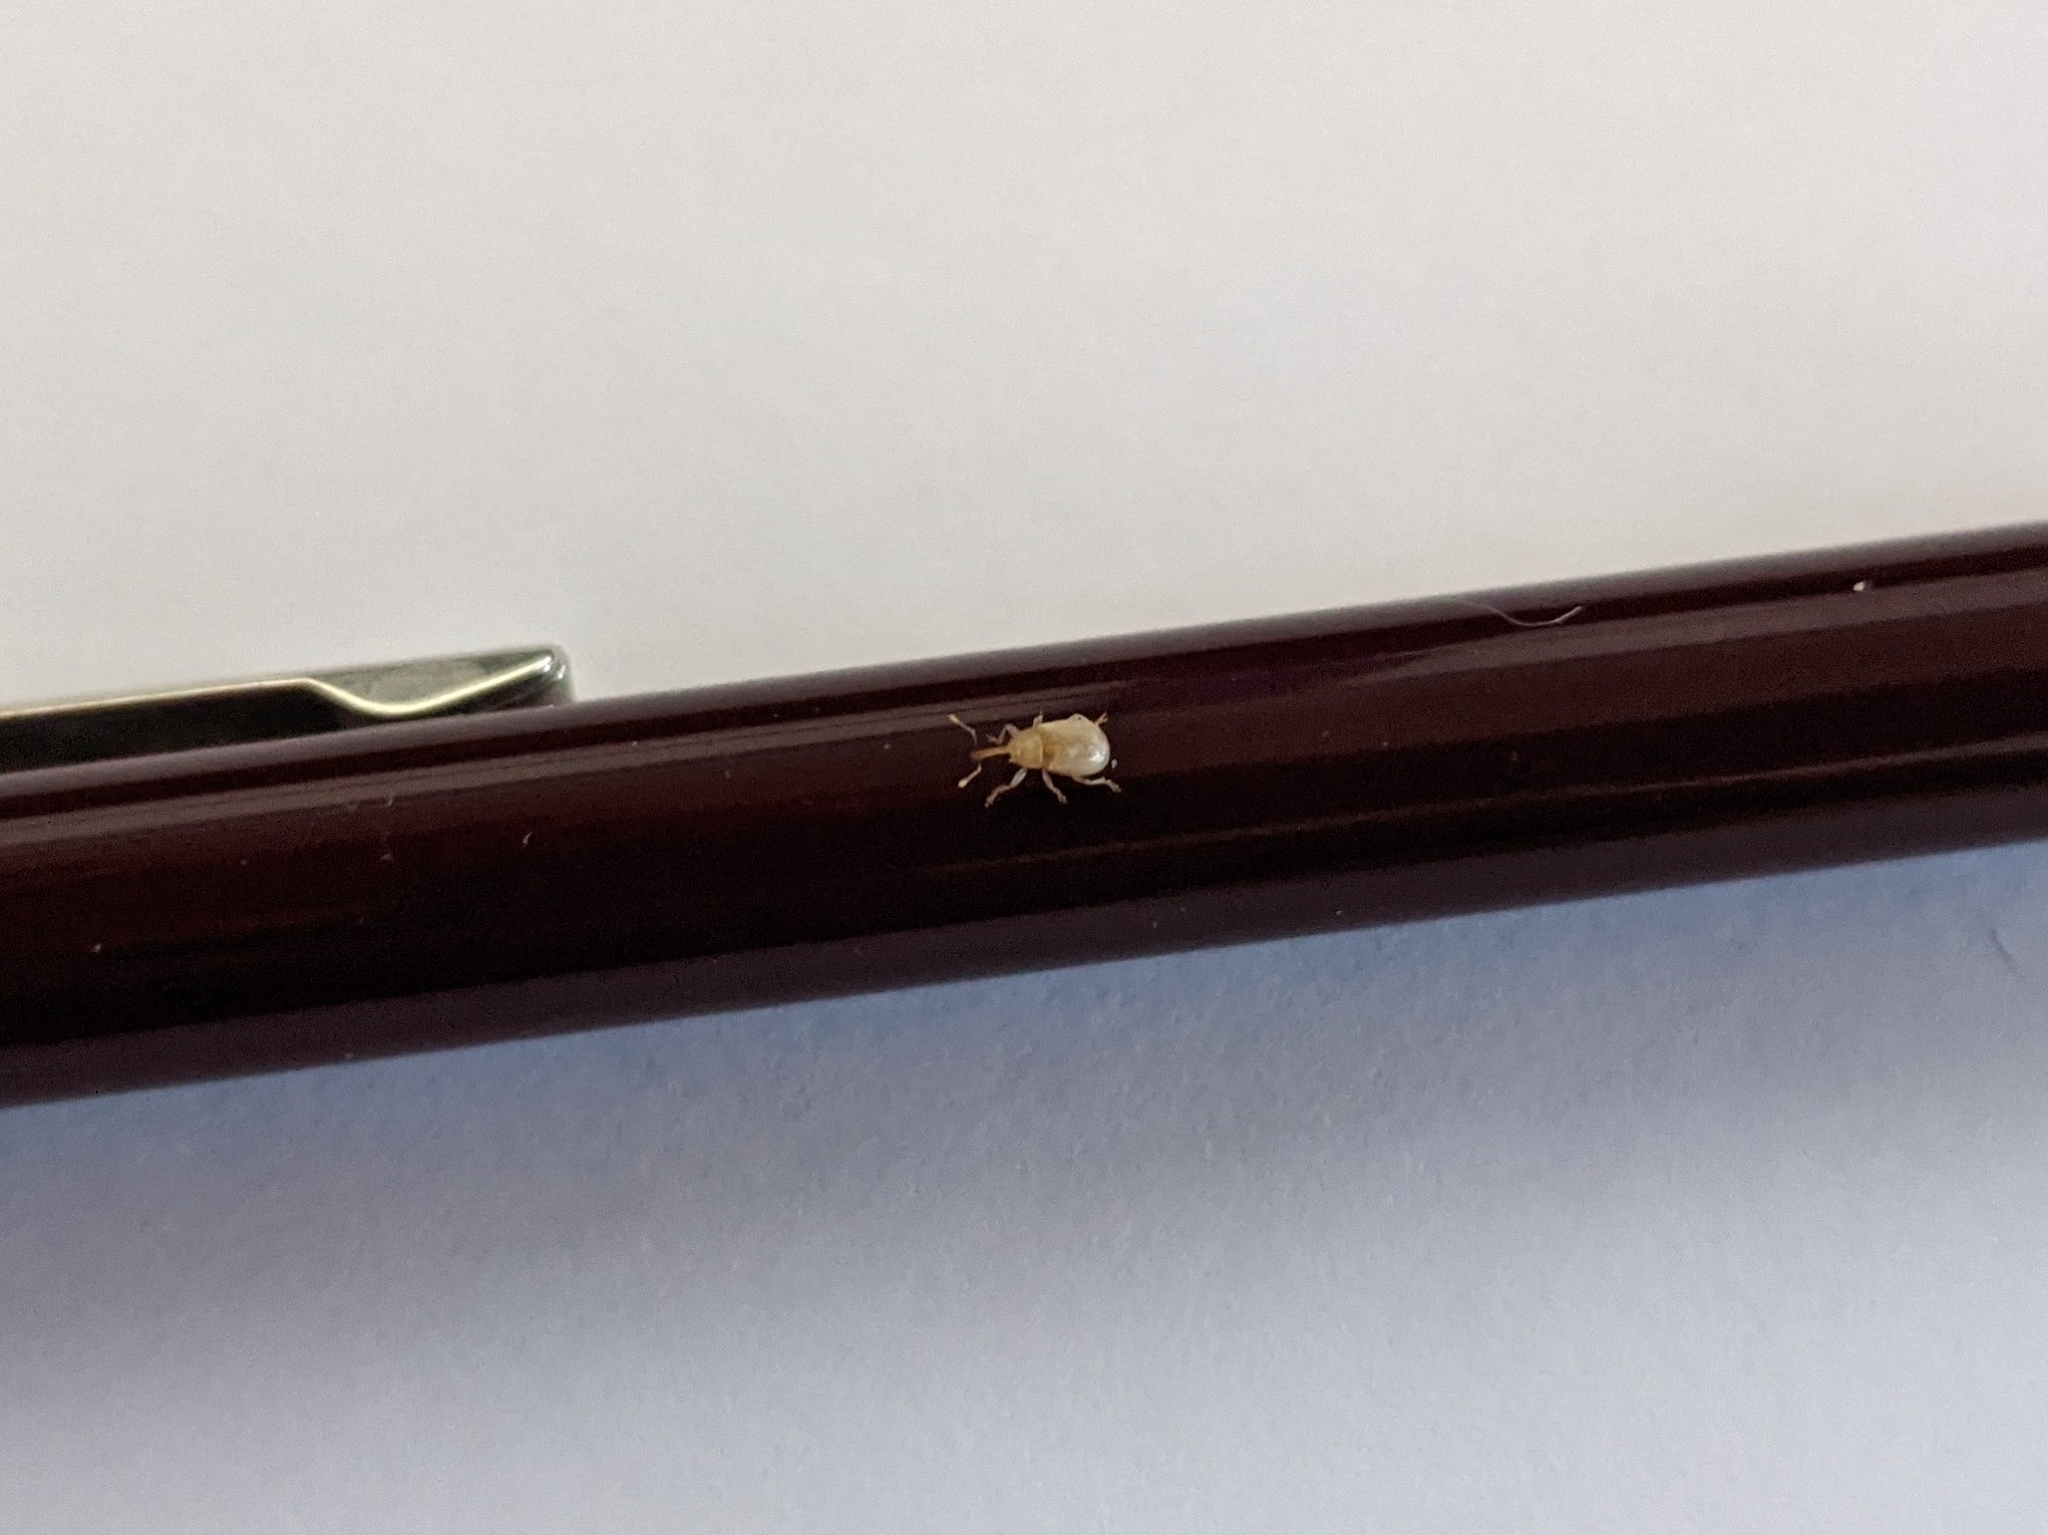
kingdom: Animalia
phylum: Arthropoda
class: Insecta
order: Coleoptera
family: Curculionidae
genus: Neoderelomus
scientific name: Neoderelomus piriformis
